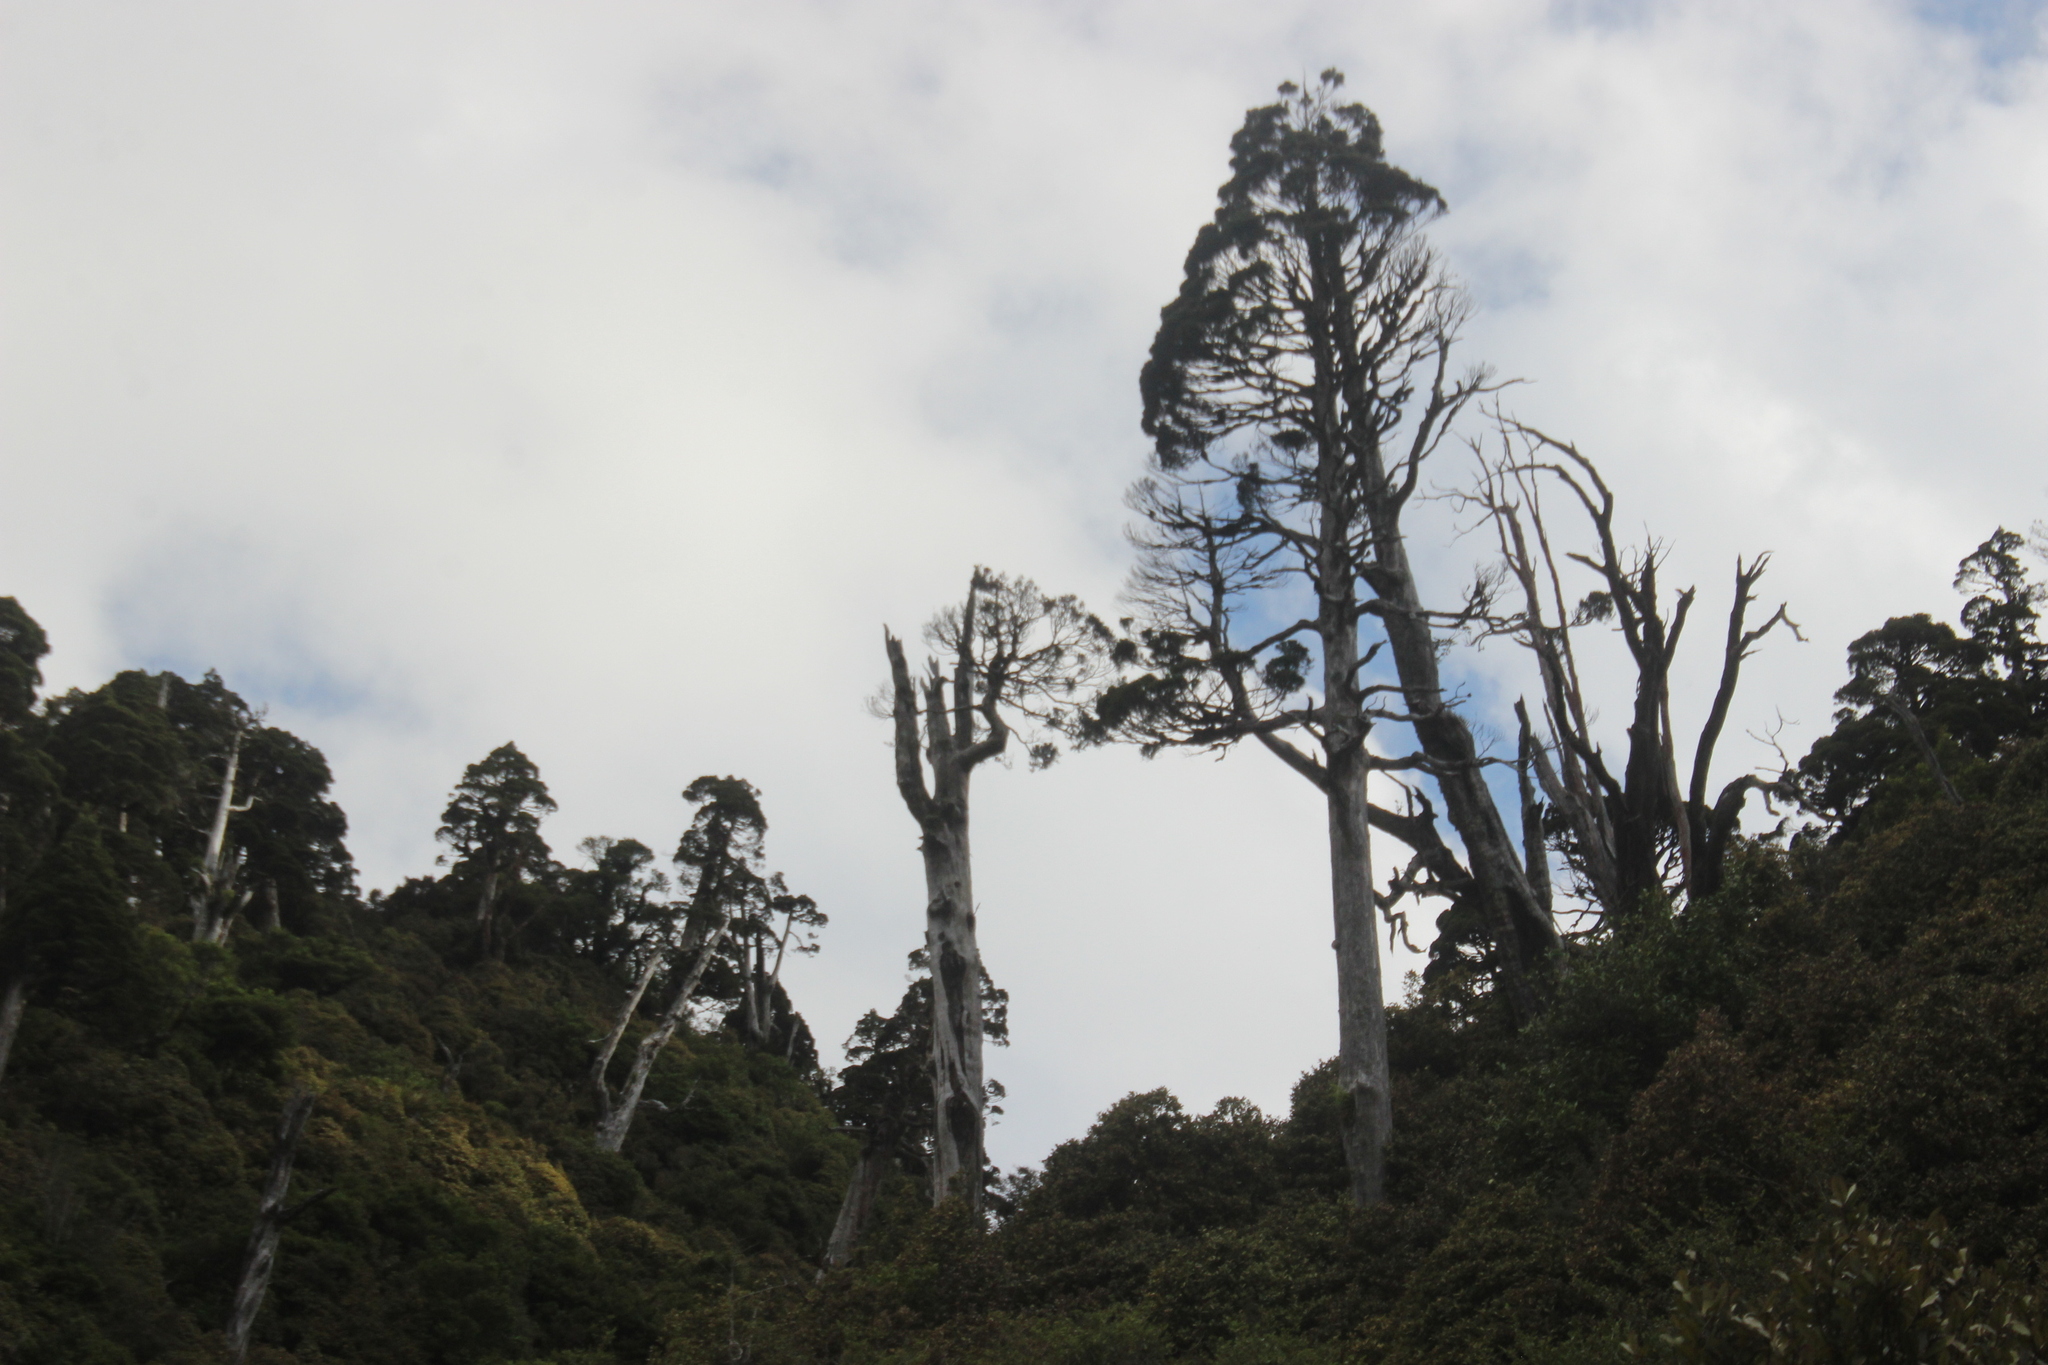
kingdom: Plantae
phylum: Tracheophyta
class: Pinopsida
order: Pinales
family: Cupressaceae
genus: Libocedrus
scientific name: Libocedrus bidwillii
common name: Cedar
